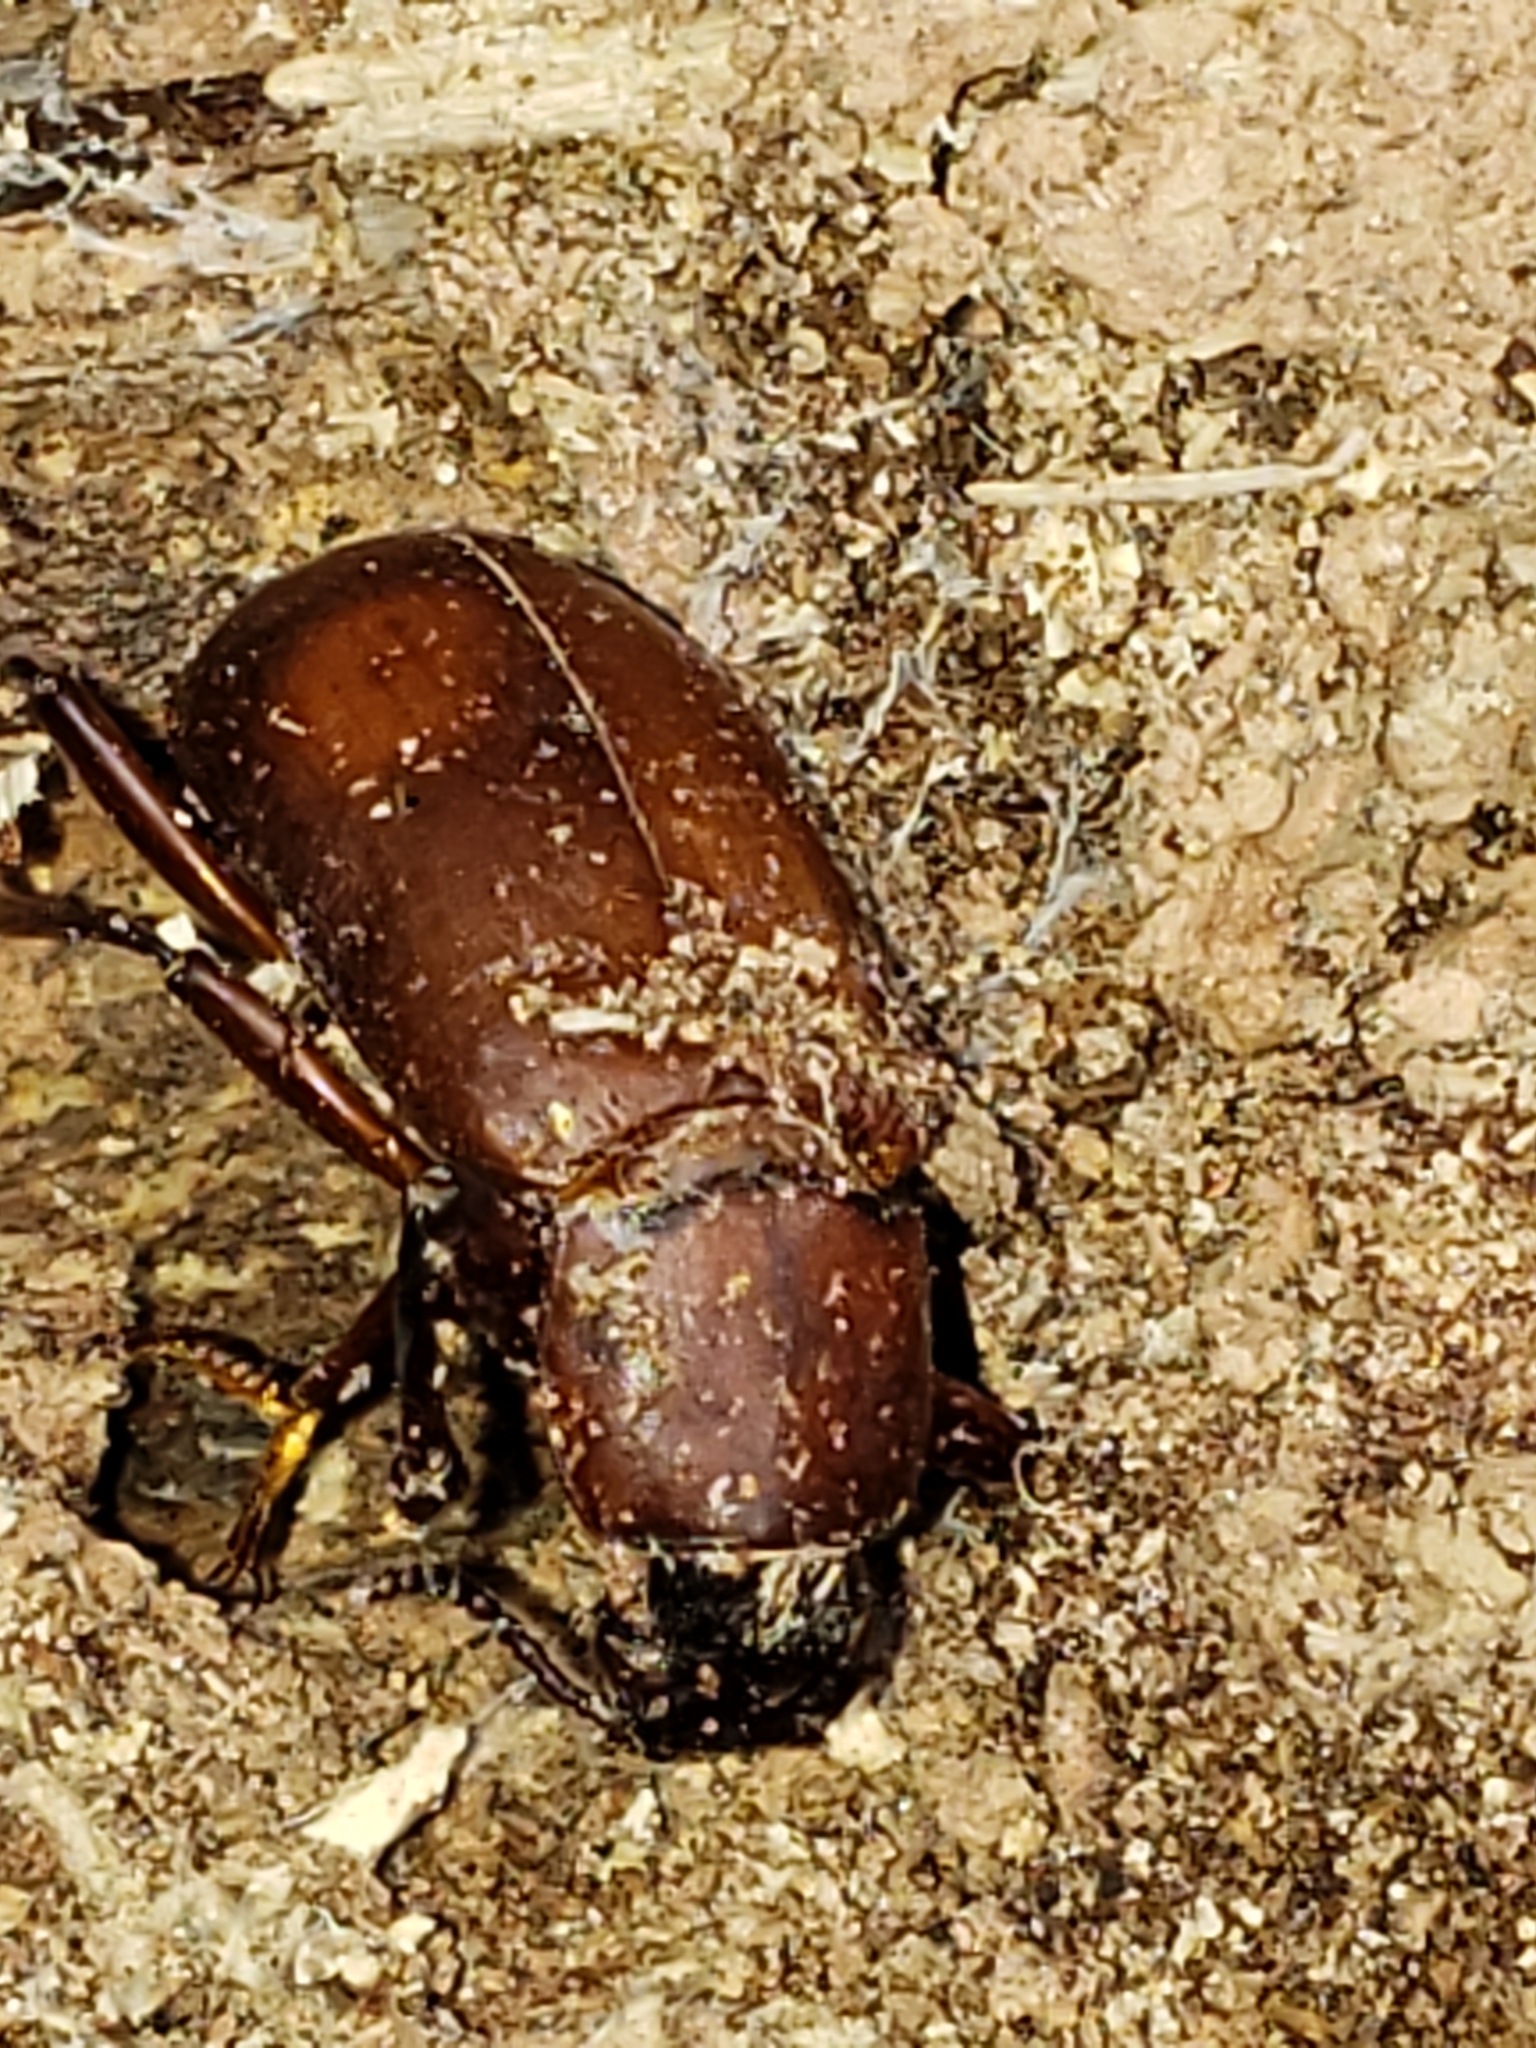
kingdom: Animalia
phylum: Arthropoda
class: Insecta
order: Coleoptera
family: Tenebrionidae
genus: Alobates
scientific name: Alobates pensylvanicus
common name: False mealworm beetle
